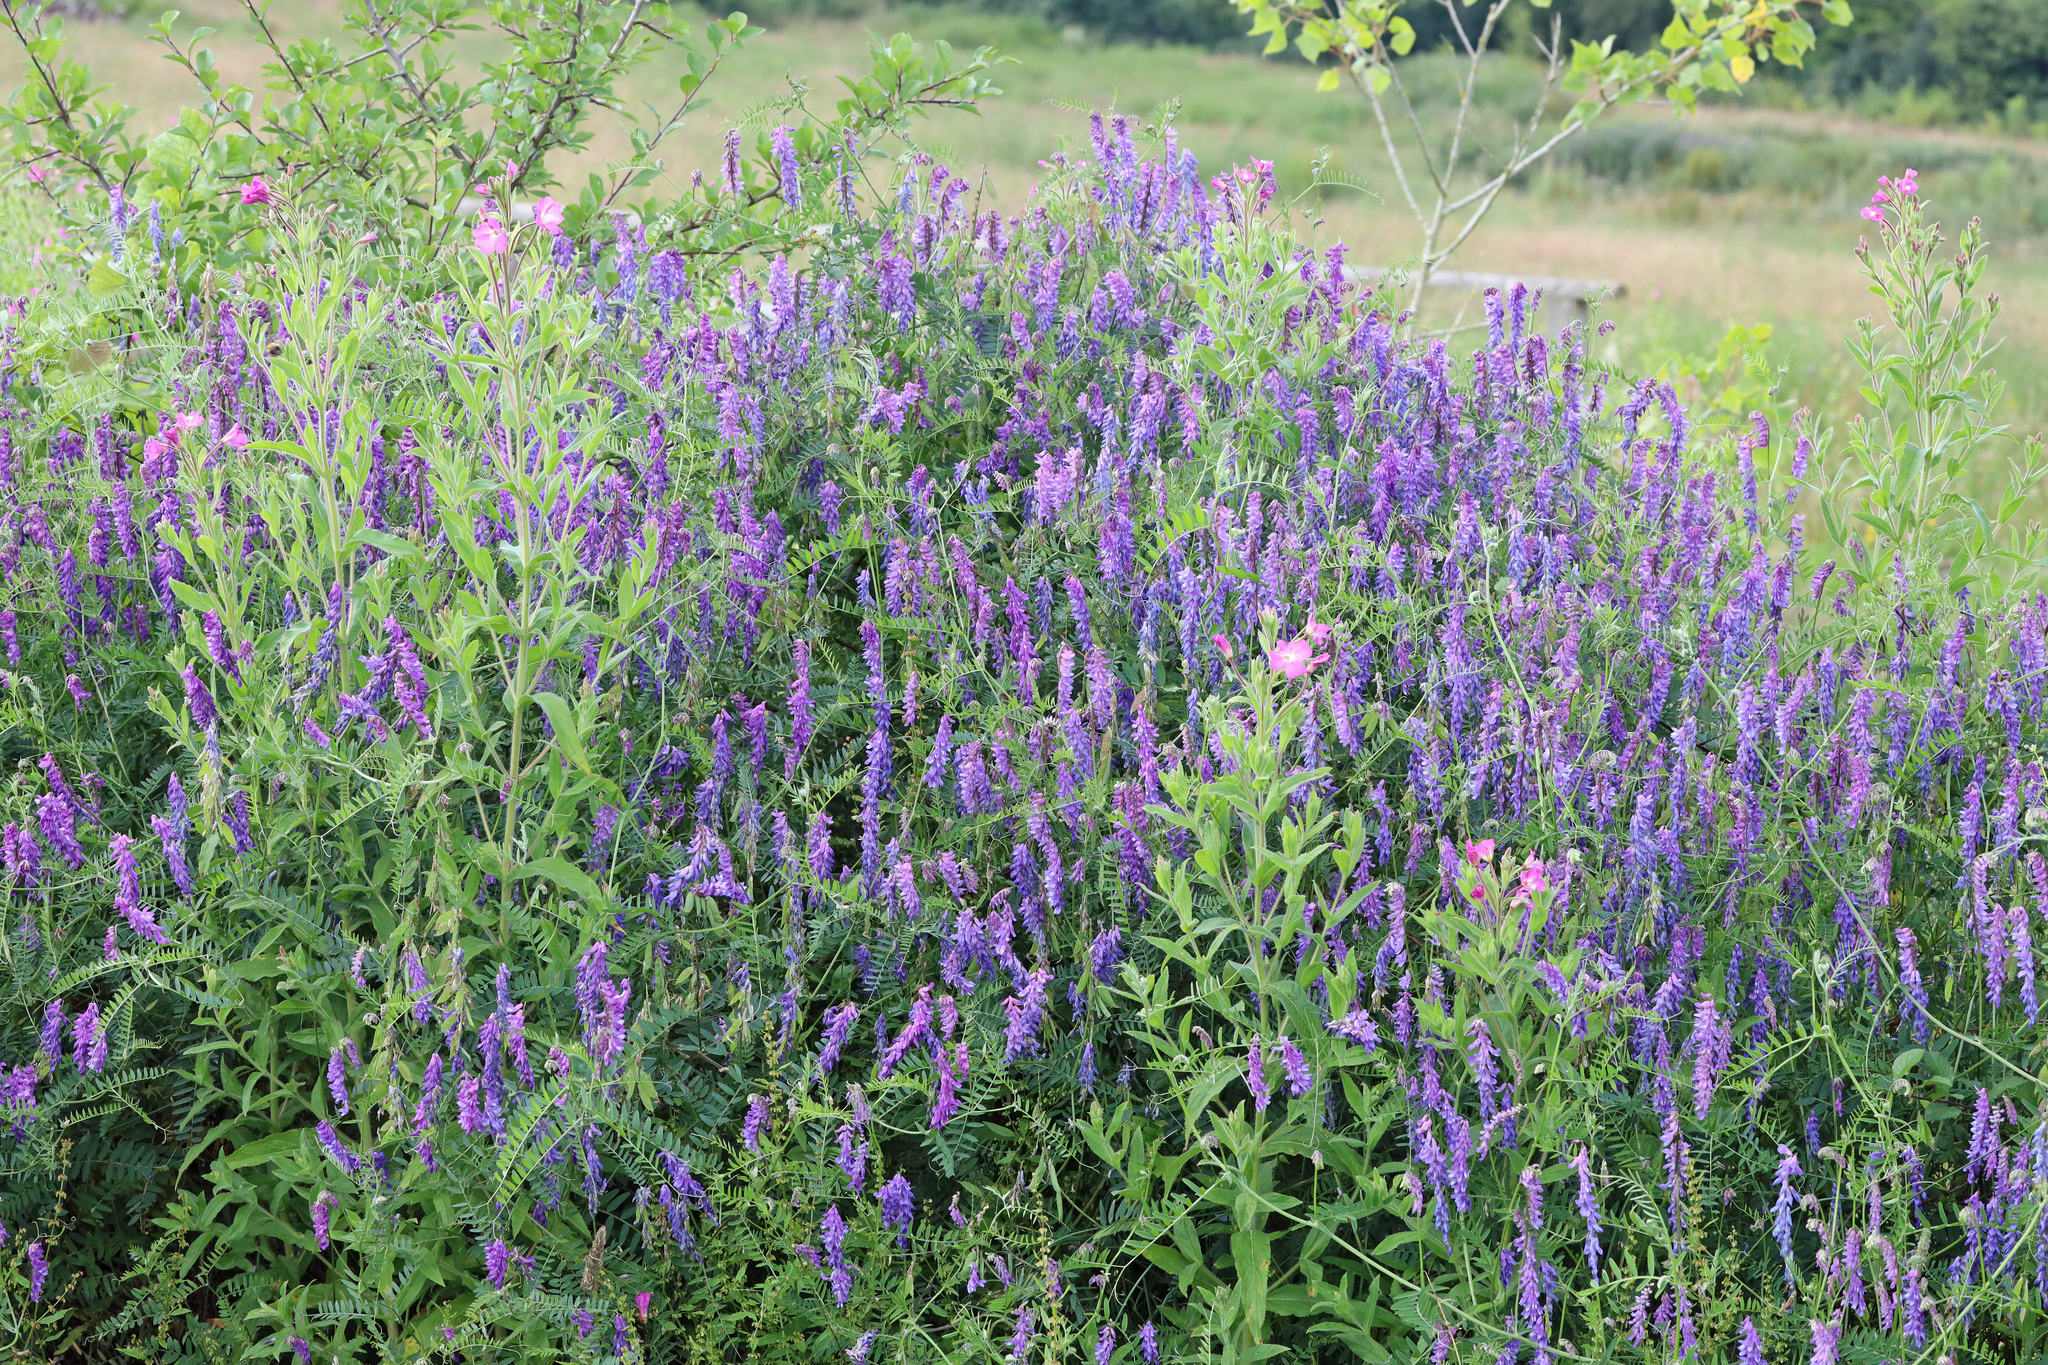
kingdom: Plantae
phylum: Tracheophyta
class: Magnoliopsida
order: Fabales
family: Fabaceae
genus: Vicia
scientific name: Vicia cracca
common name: Bird vetch
